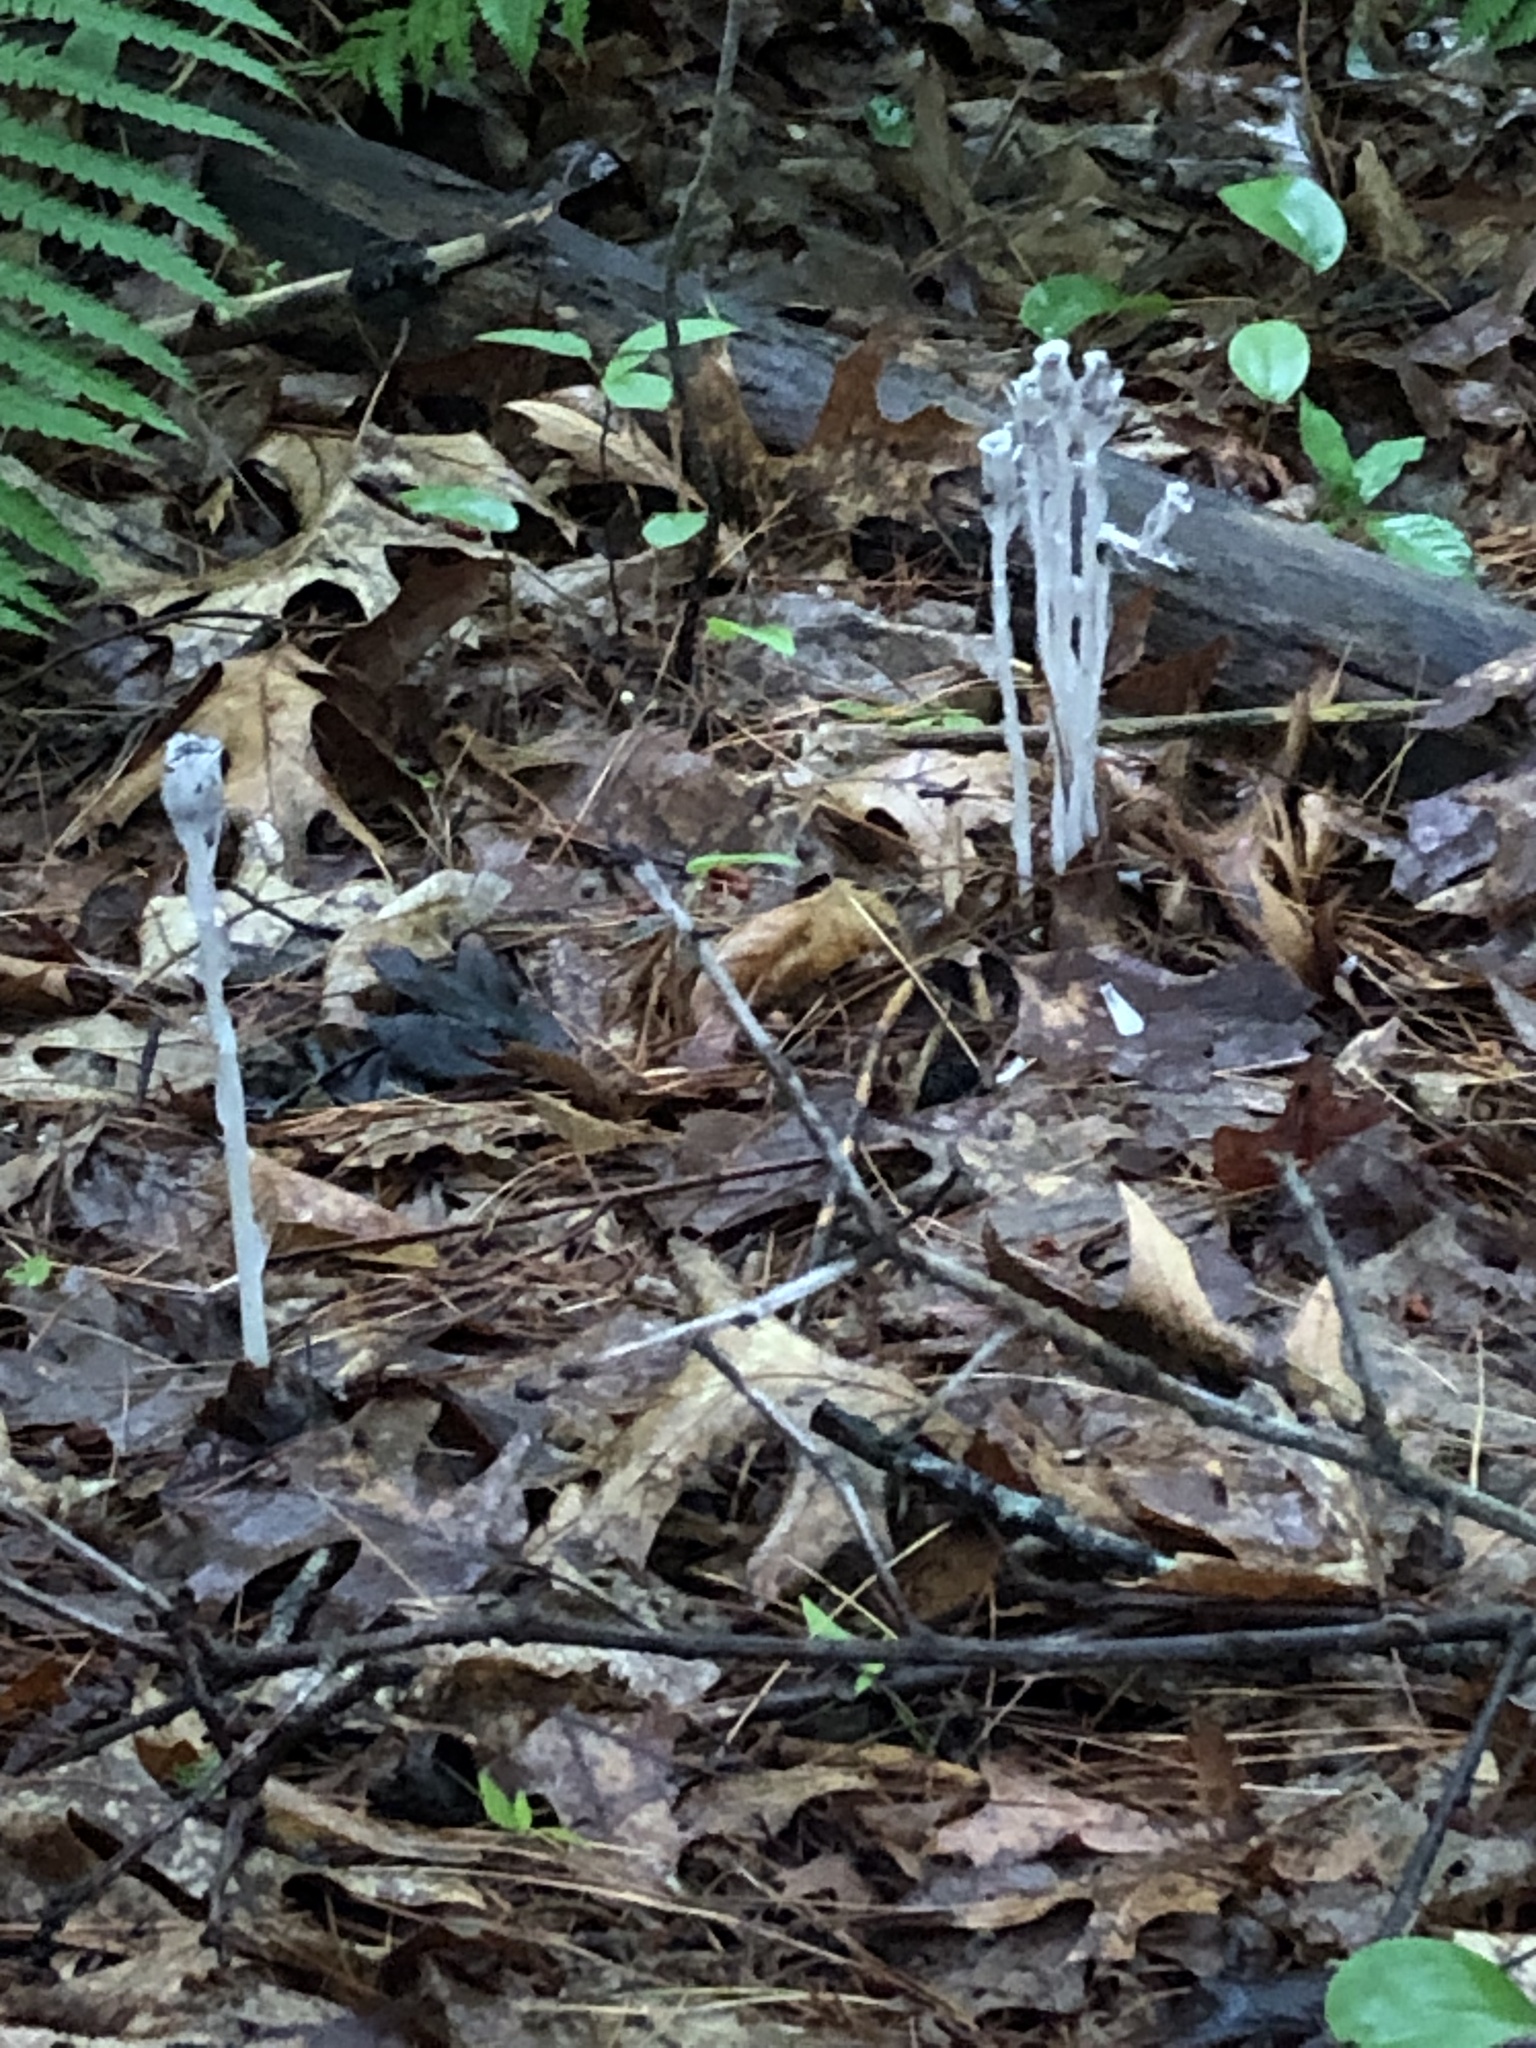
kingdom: Plantae
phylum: Tracheophyta
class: Magnoliopsida
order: Ericales
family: Ericaceae
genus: Monotropa
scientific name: Monotropa uniflora
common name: Convulsion root
